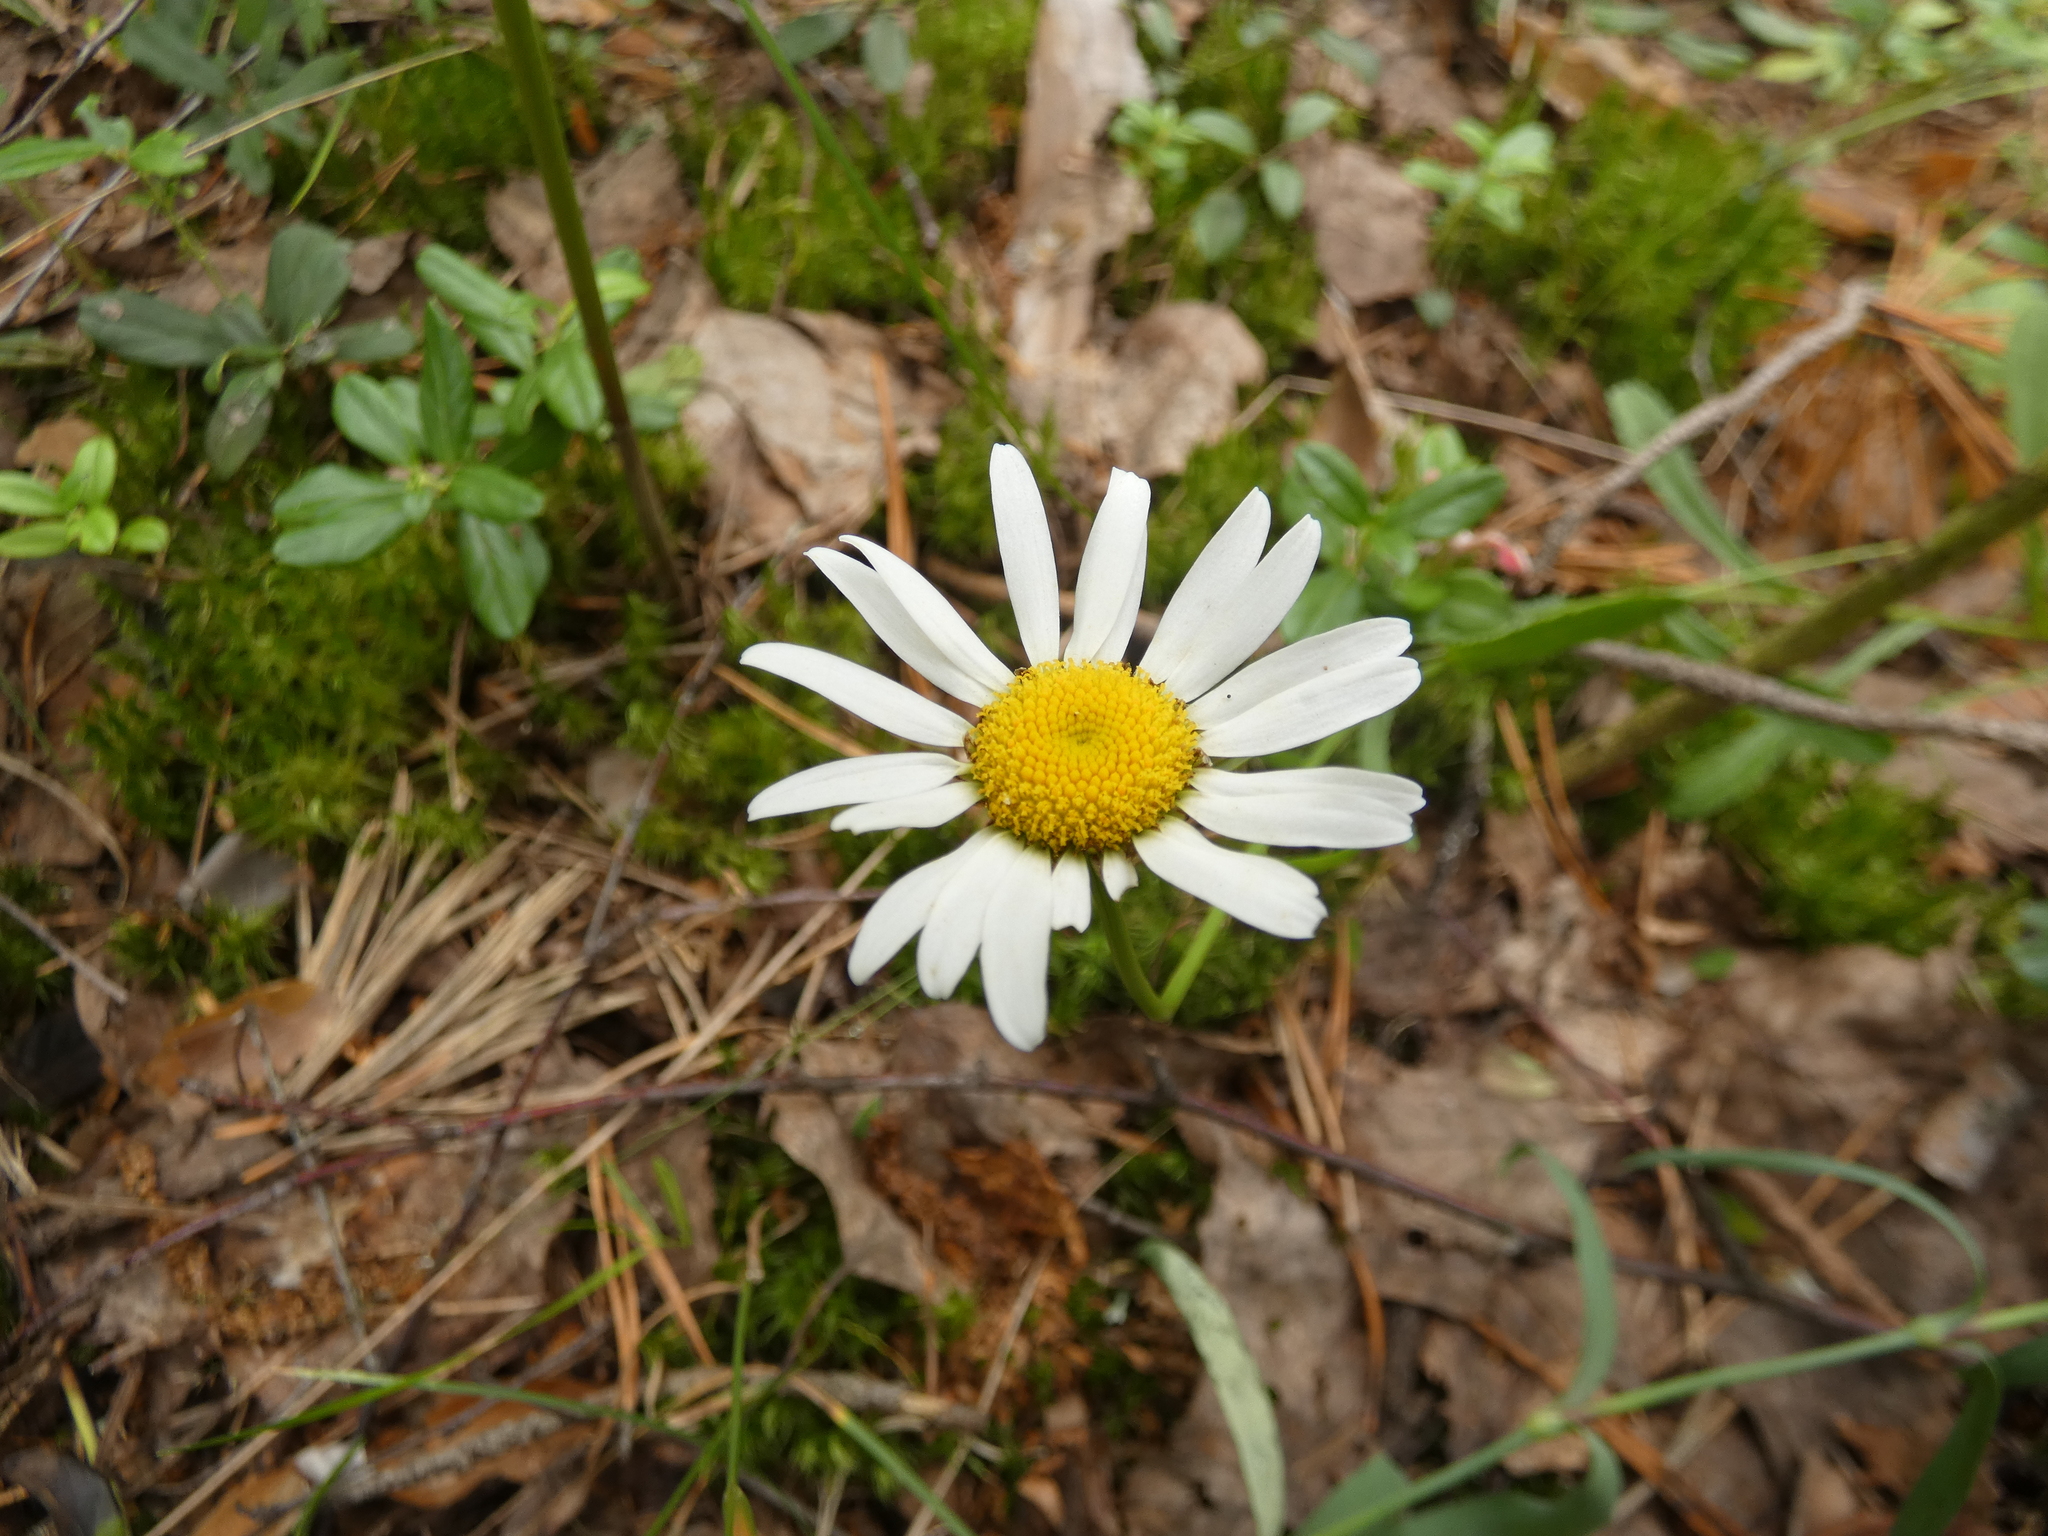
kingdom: Plantae
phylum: Tracheophyta
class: Magnoliopsida
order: Asterales
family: Asteraceae
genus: Leucanthemum
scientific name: Leucanthemum vulgare
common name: Oxeye daisy
